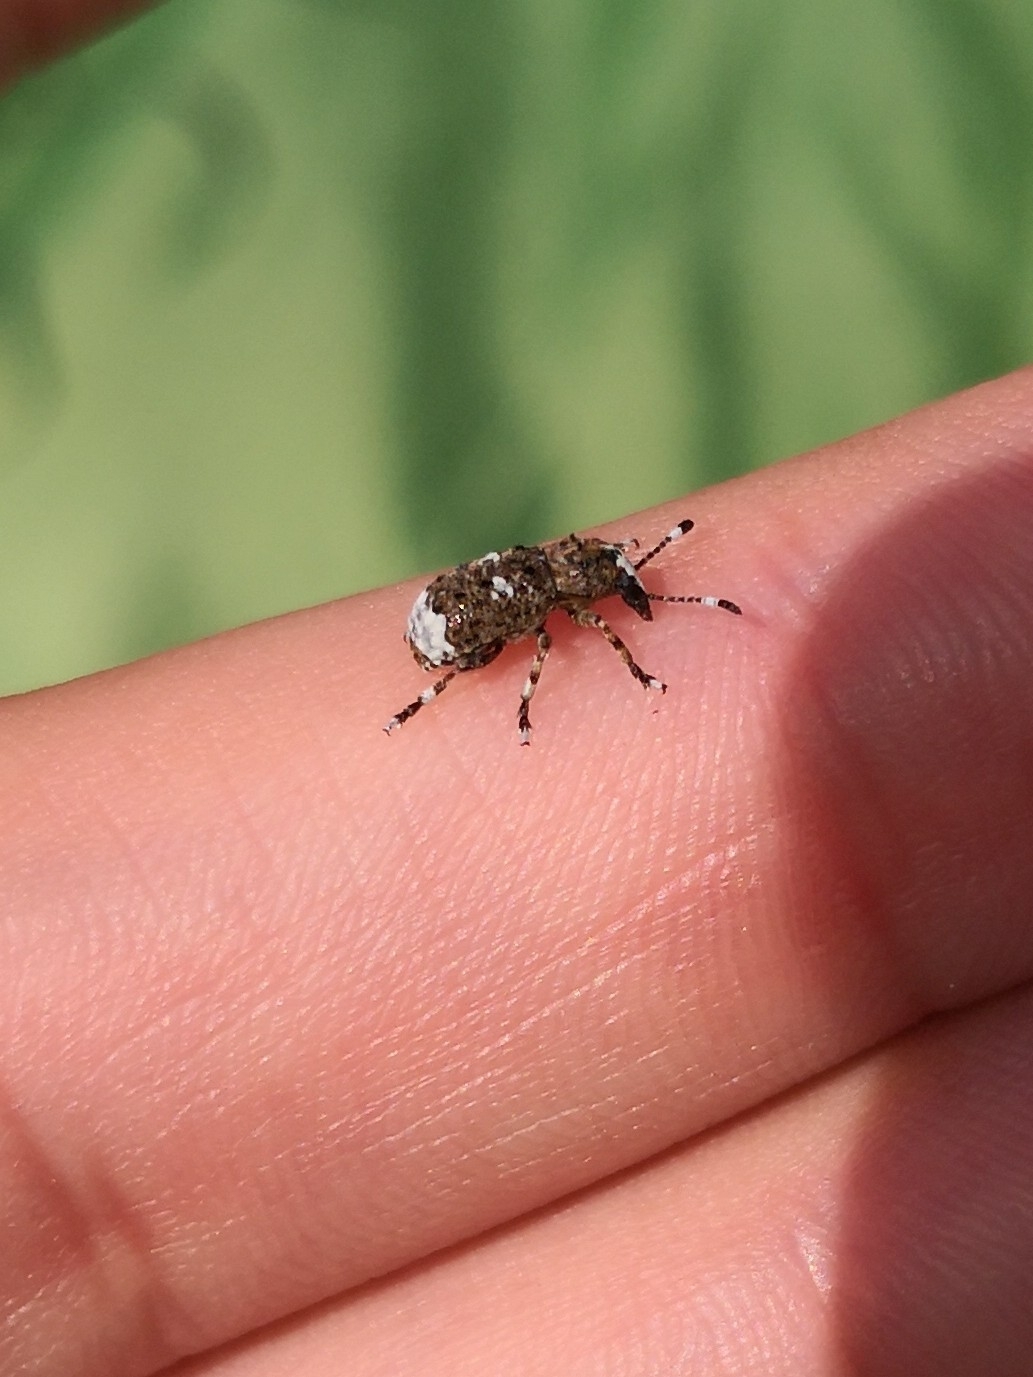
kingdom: Animalia
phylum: Arthropoda
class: Insecta
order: Coleoptera
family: Anthribidae
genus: Platystomos
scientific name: Platystomos albinus
